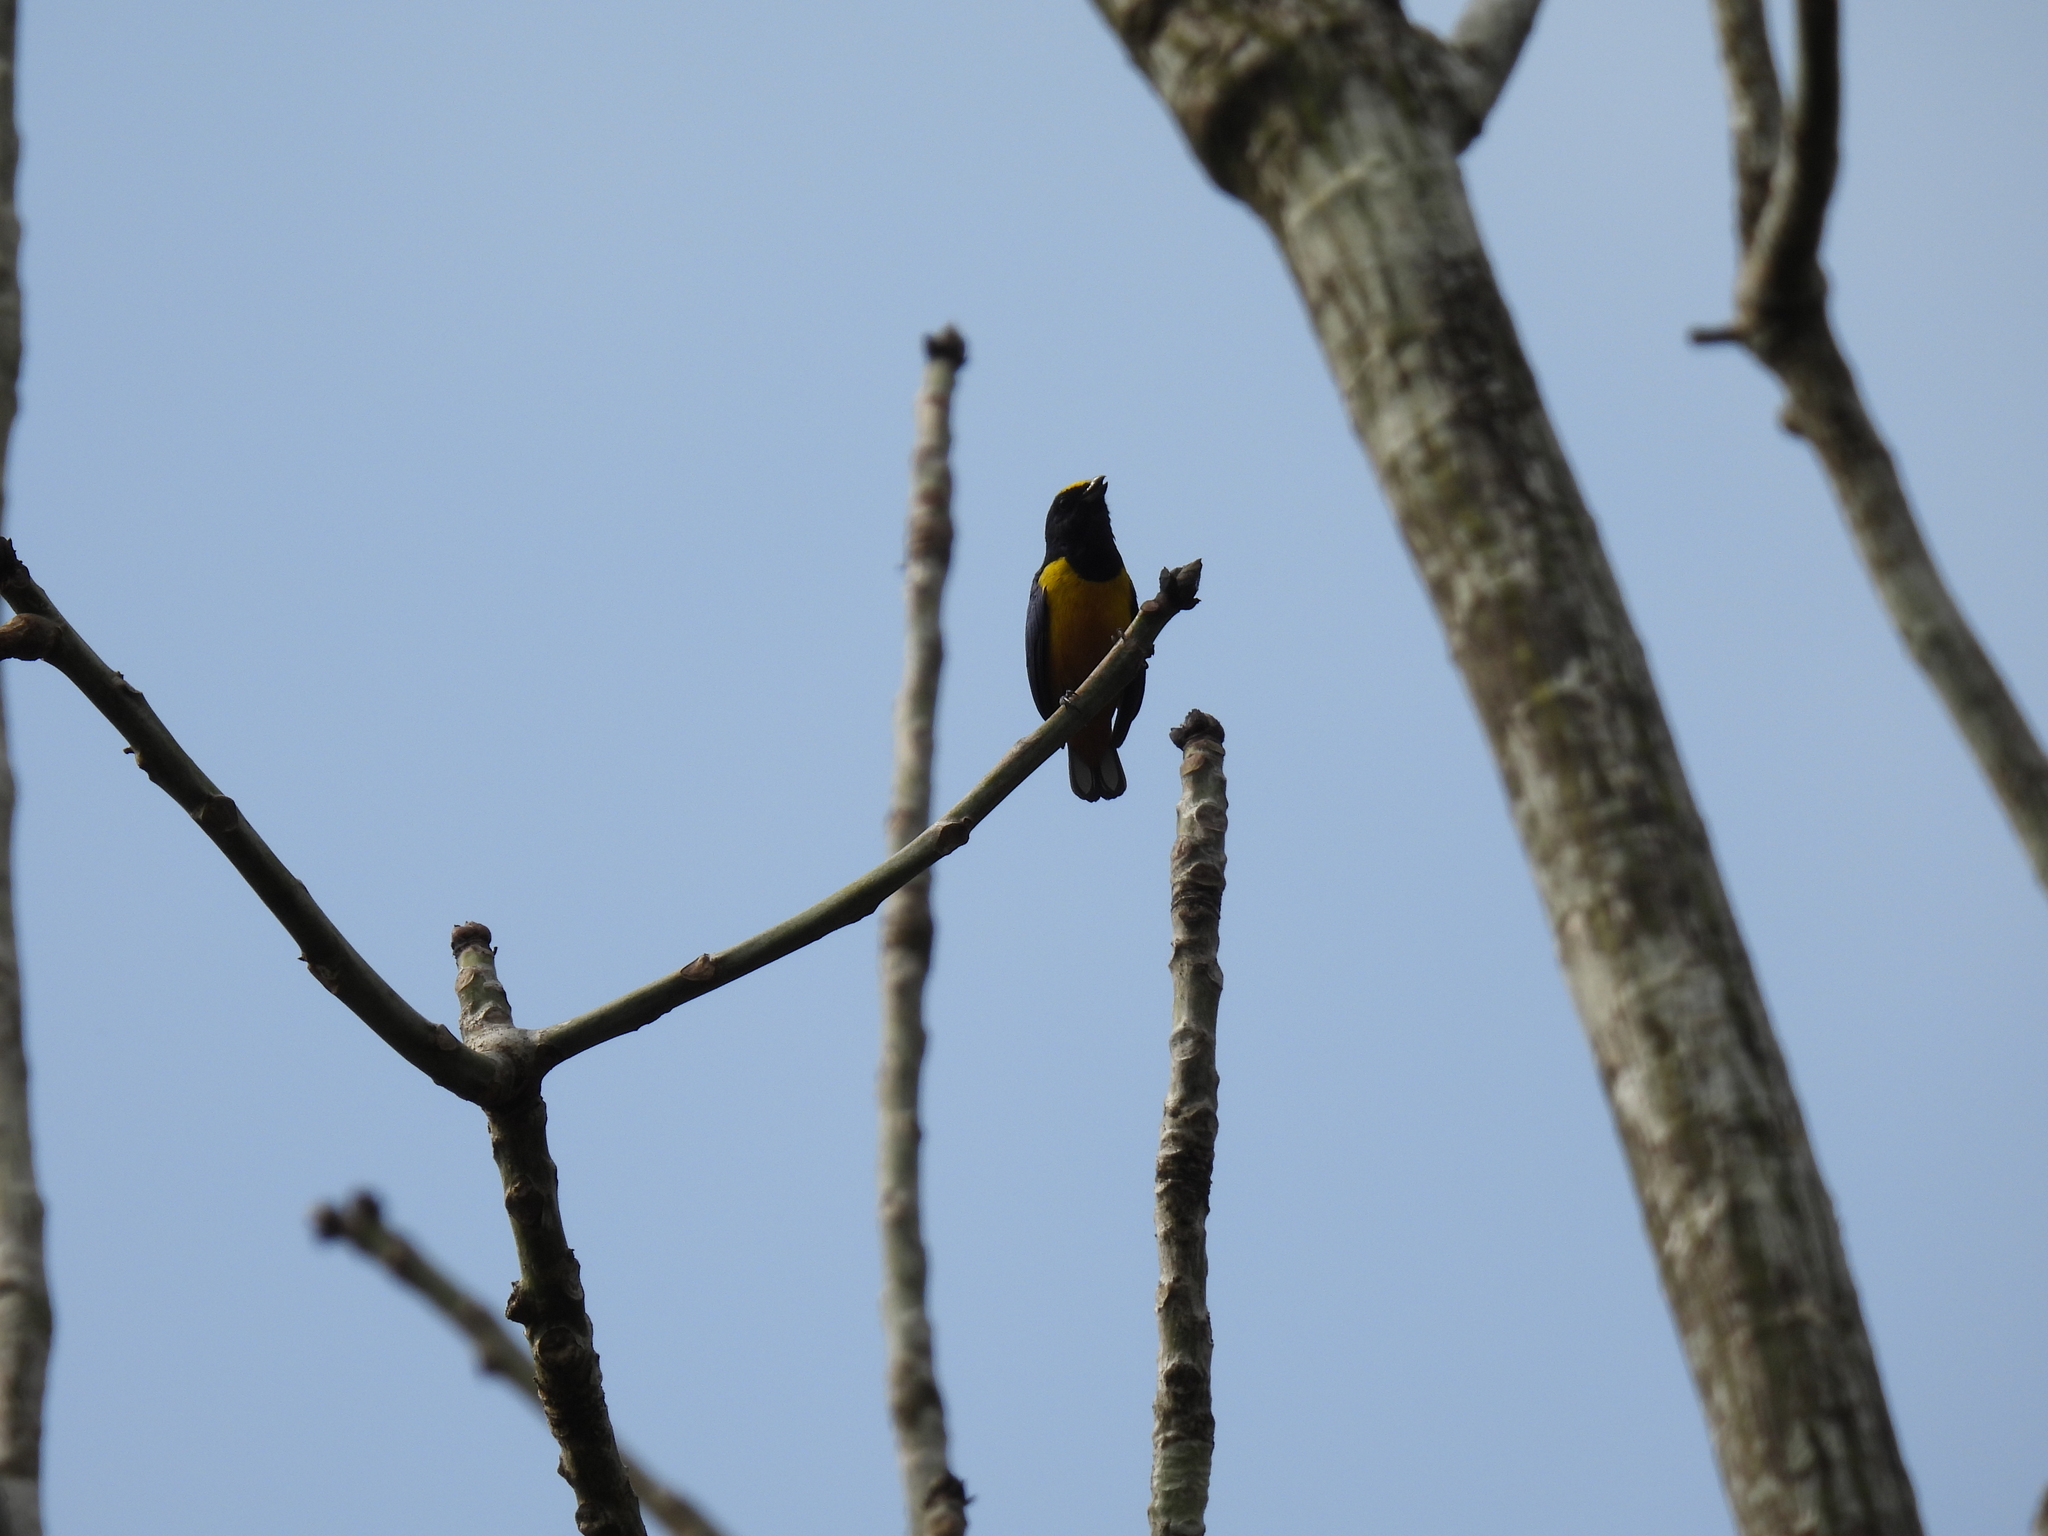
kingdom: Animalia
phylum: Chordata
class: Aves
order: Passeriformes
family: Fringillidae
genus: Euphonia
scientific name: Euphonia fulvicrissa
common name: Fulvous-vented euphonia
